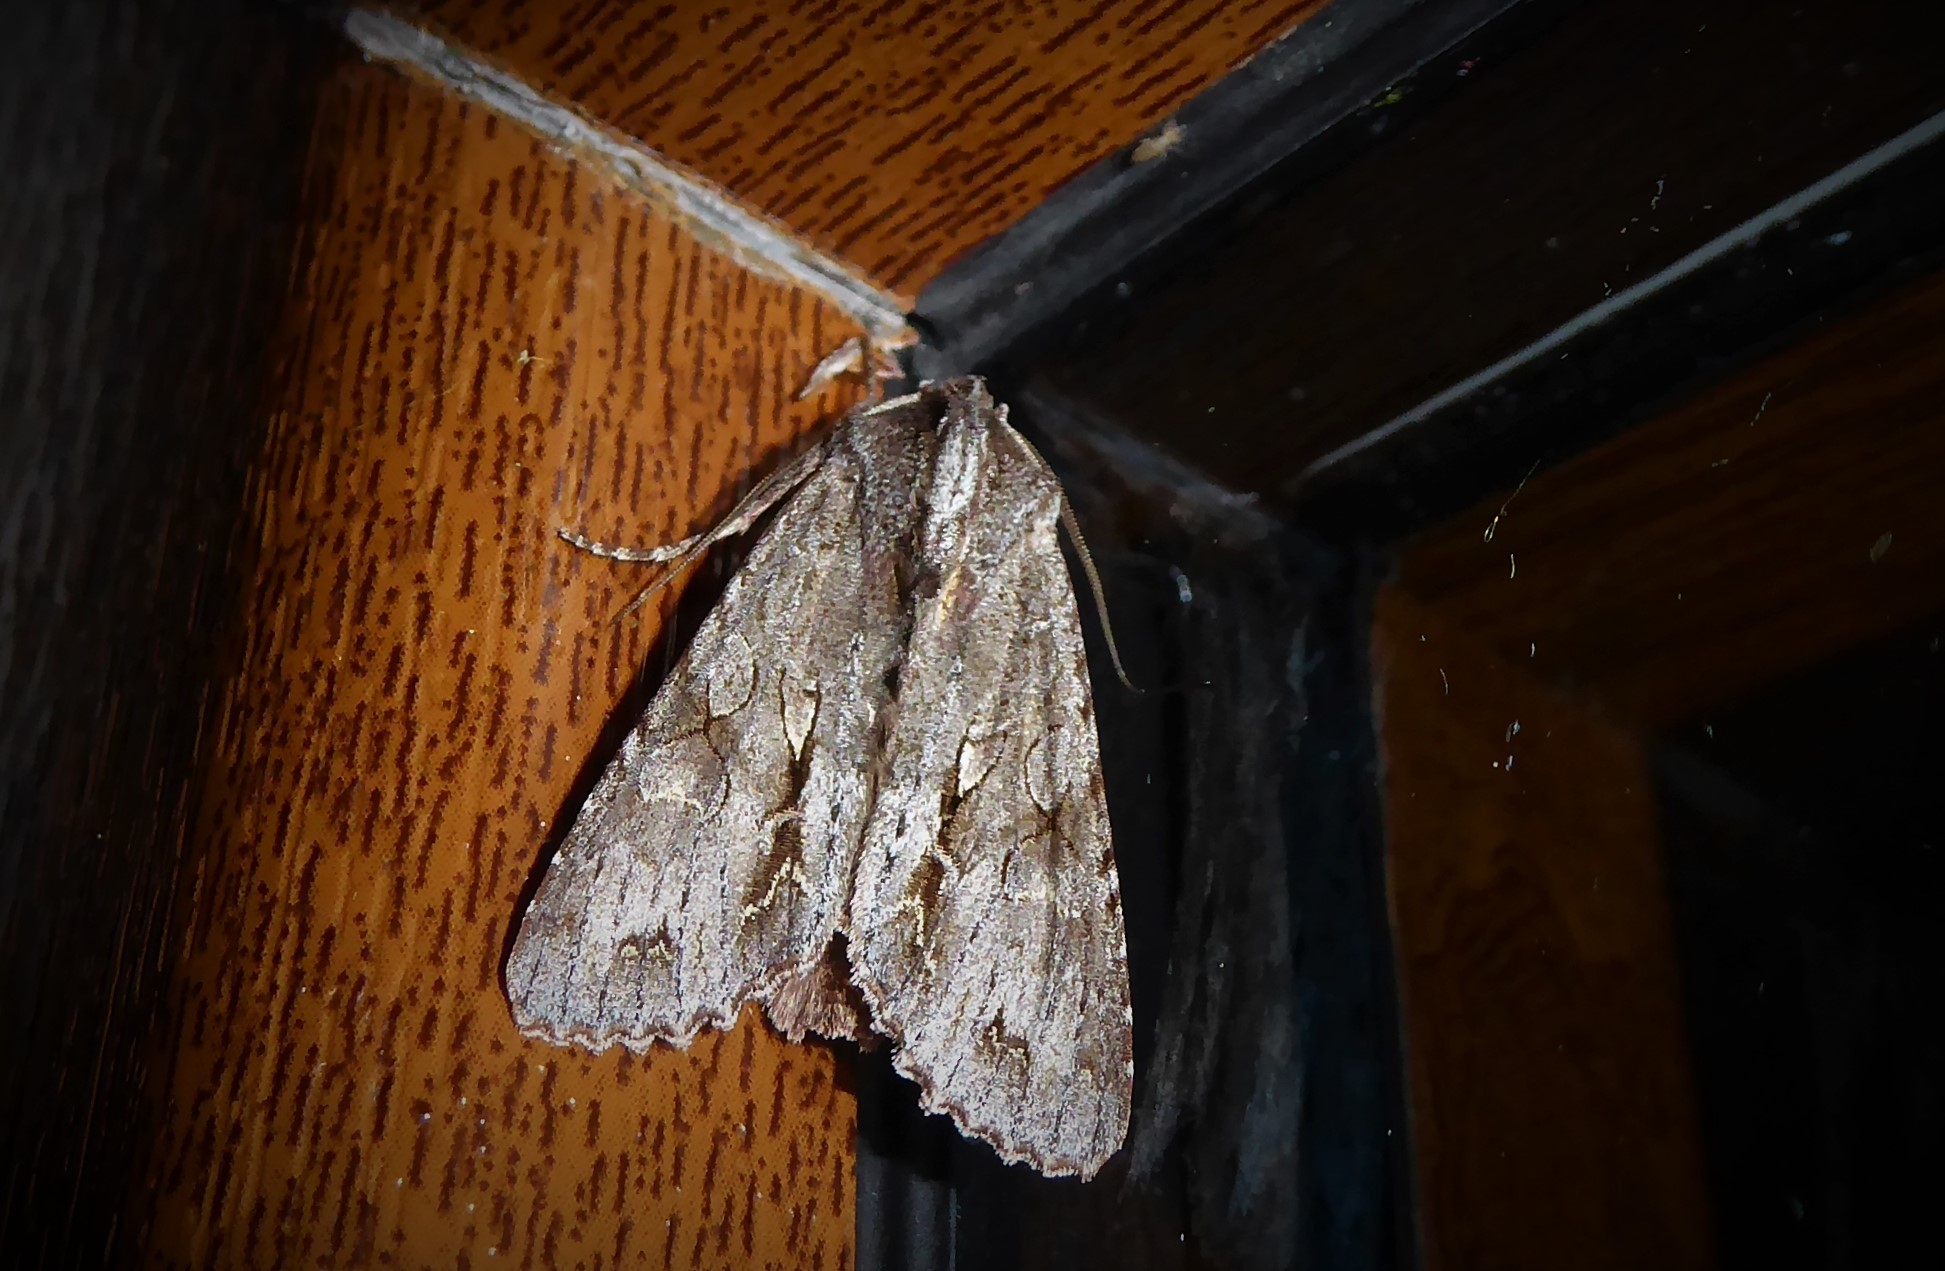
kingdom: Animalia
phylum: Arthropoda
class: Insecta
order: Lepidoptera
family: Noctuidae
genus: Ichneutica
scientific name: Ichneutica
